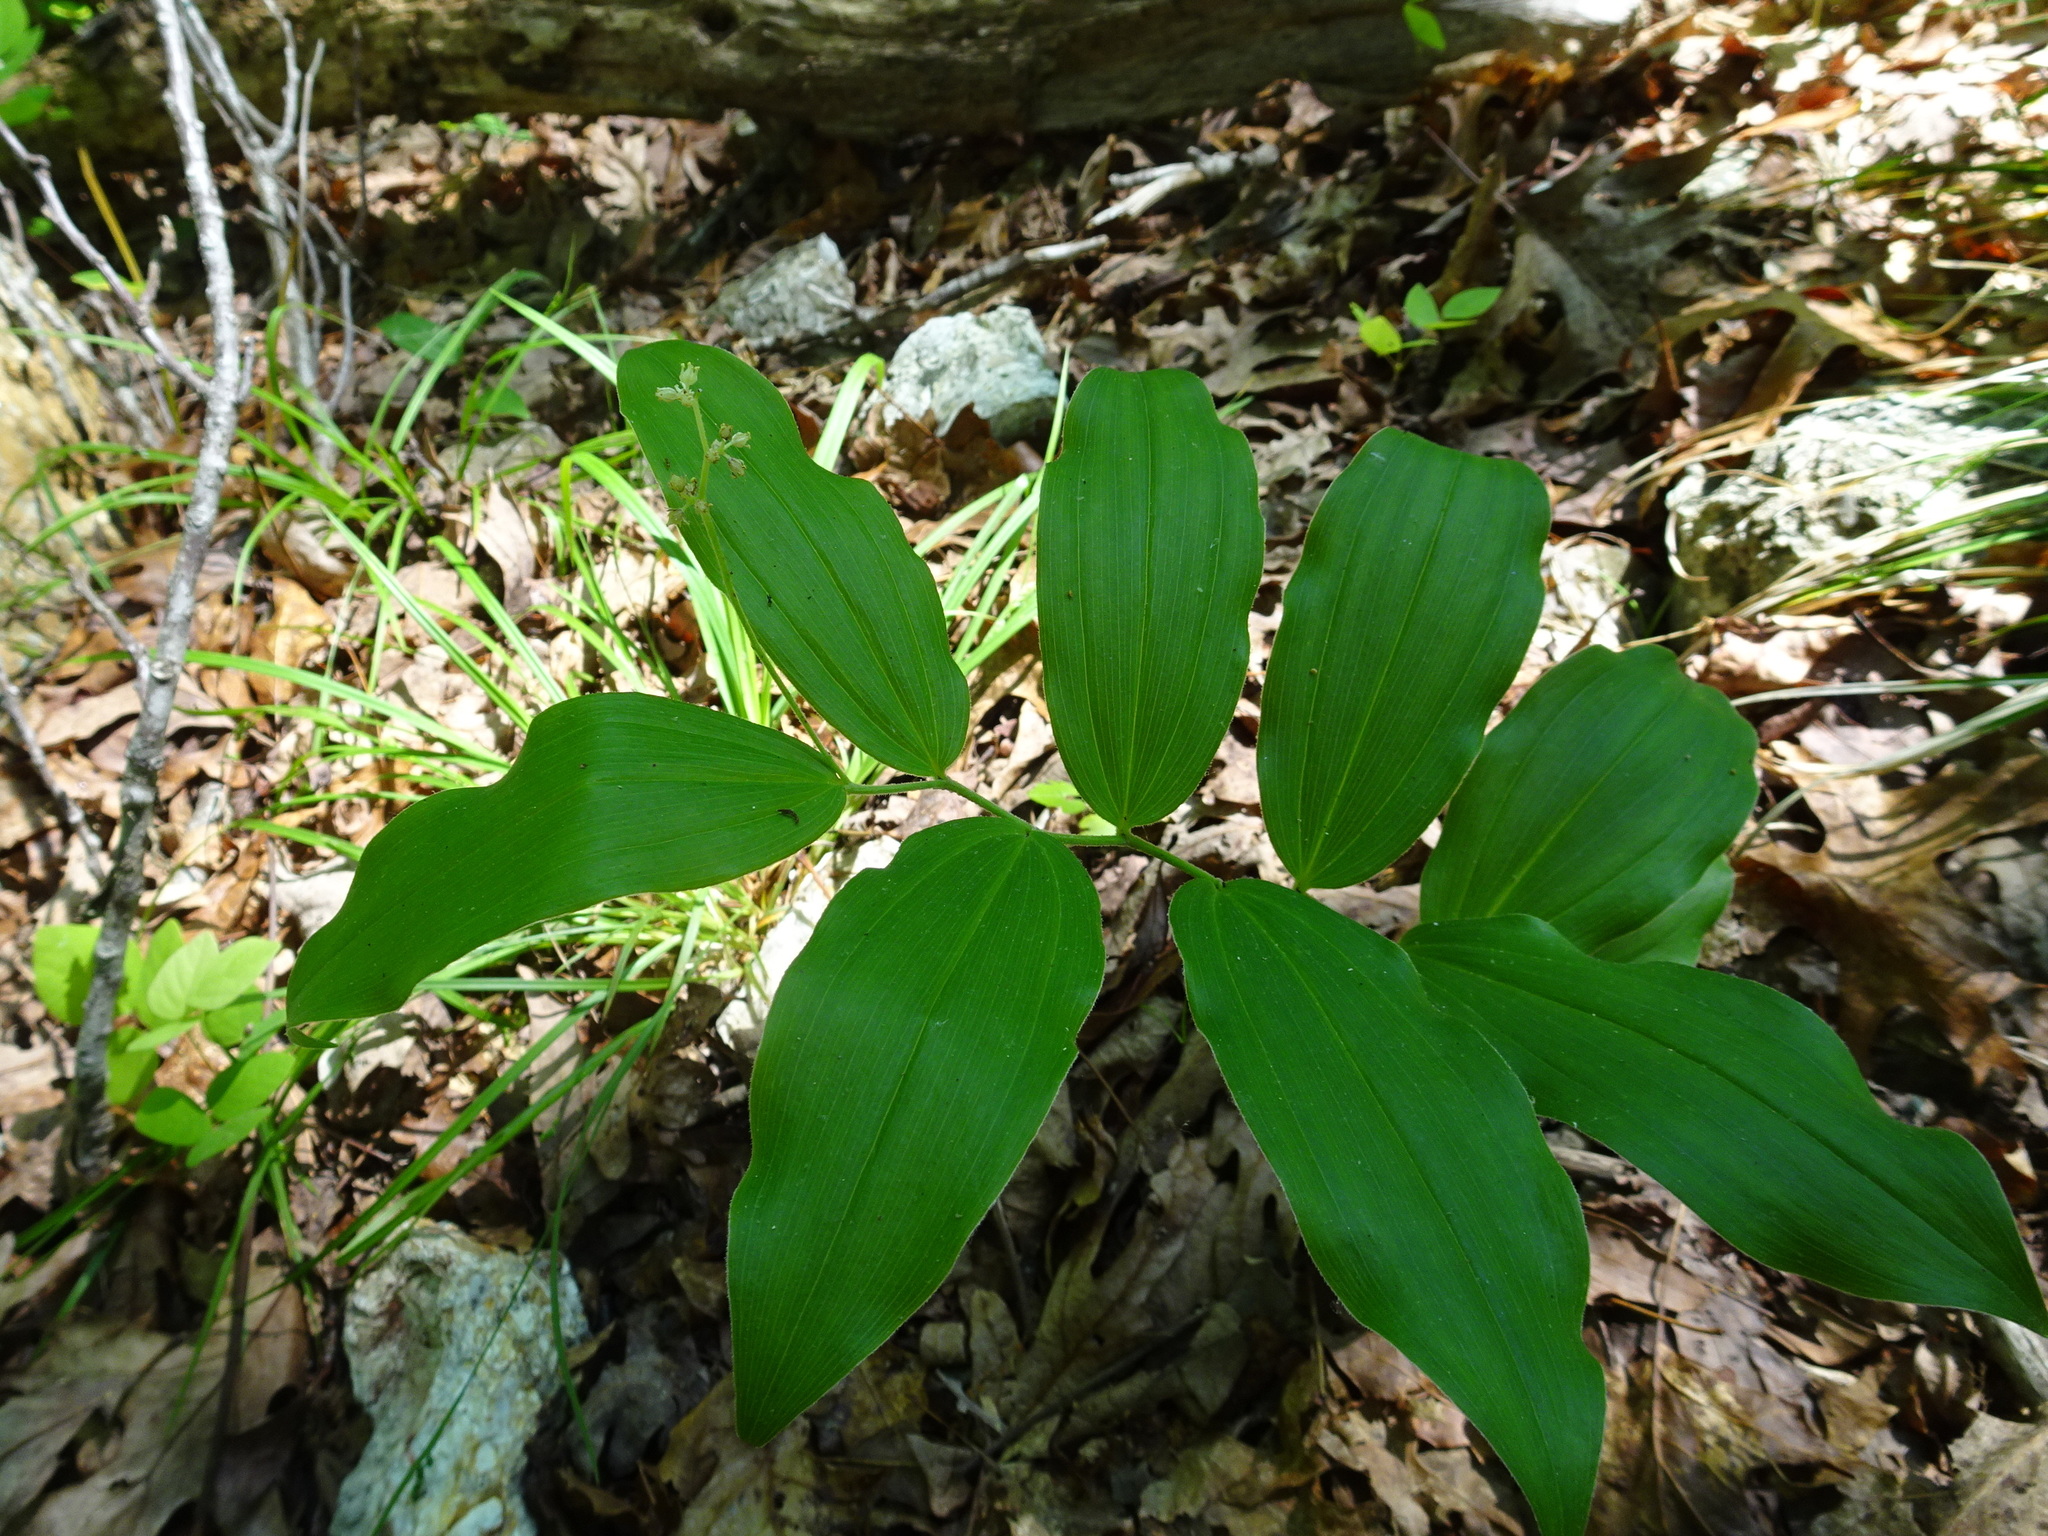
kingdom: Plantae
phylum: Tracheophyta
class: Liliopsida
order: Asparagales
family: Asparagaceae
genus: Maianthemum
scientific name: Maianthemum racemosum
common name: False spikenard
